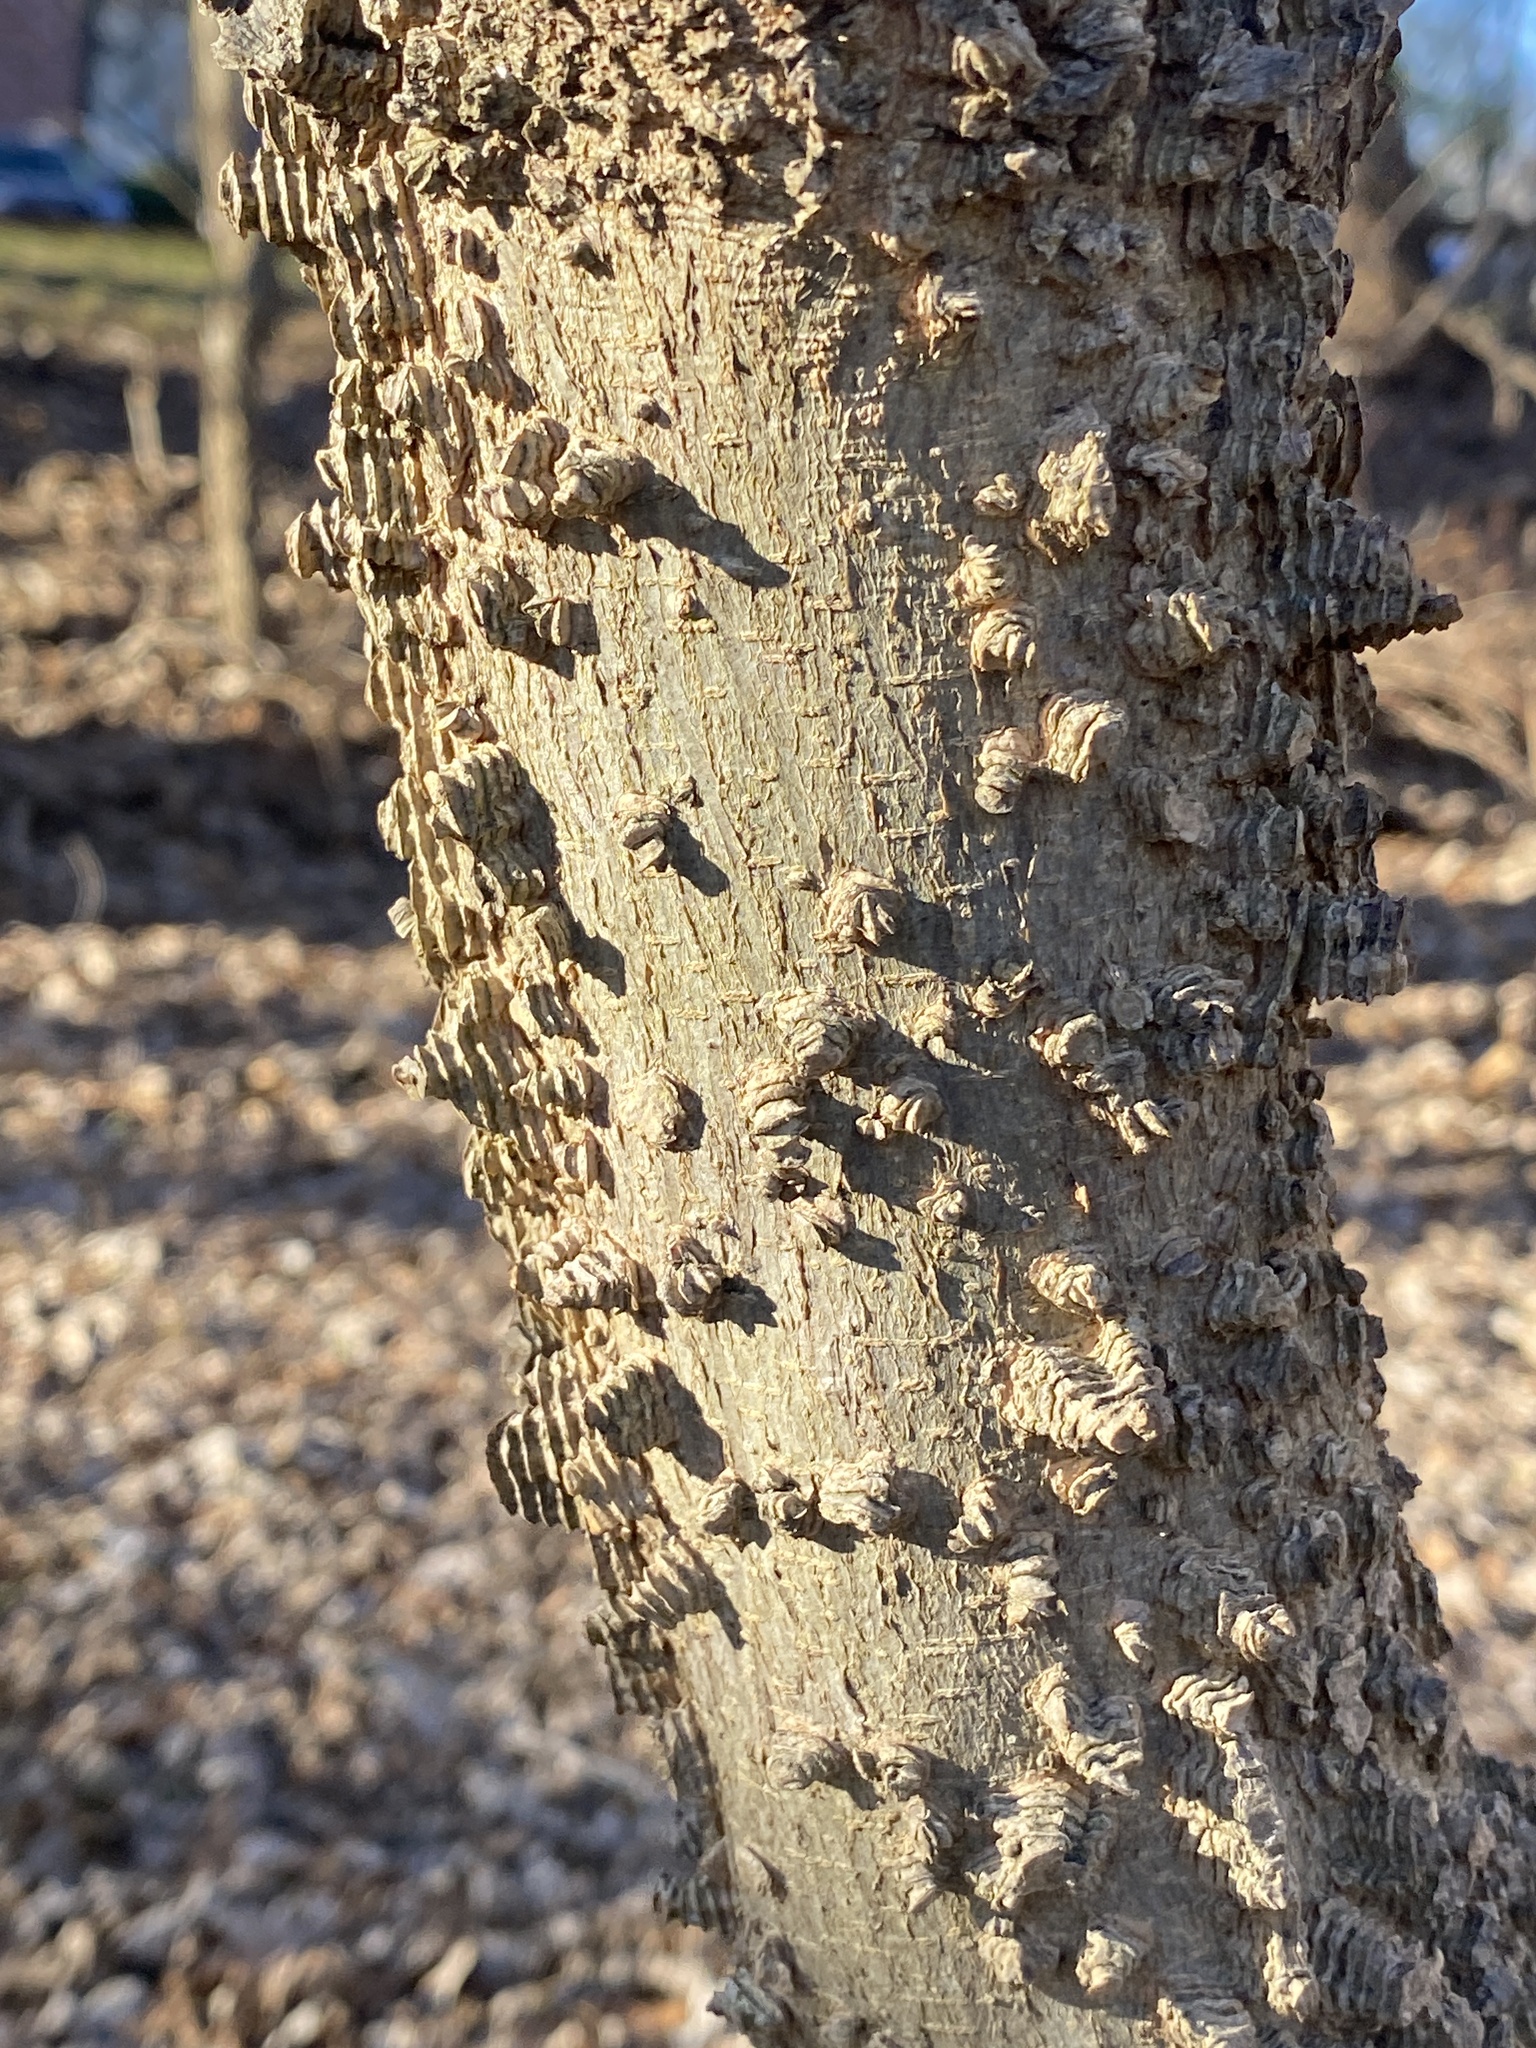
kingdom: Plantae
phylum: Tracheophyta
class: Magnoliopsida
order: Rosales
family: Cannabaceae
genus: Celtis
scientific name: Celtis occidentalis
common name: Common hackberry
